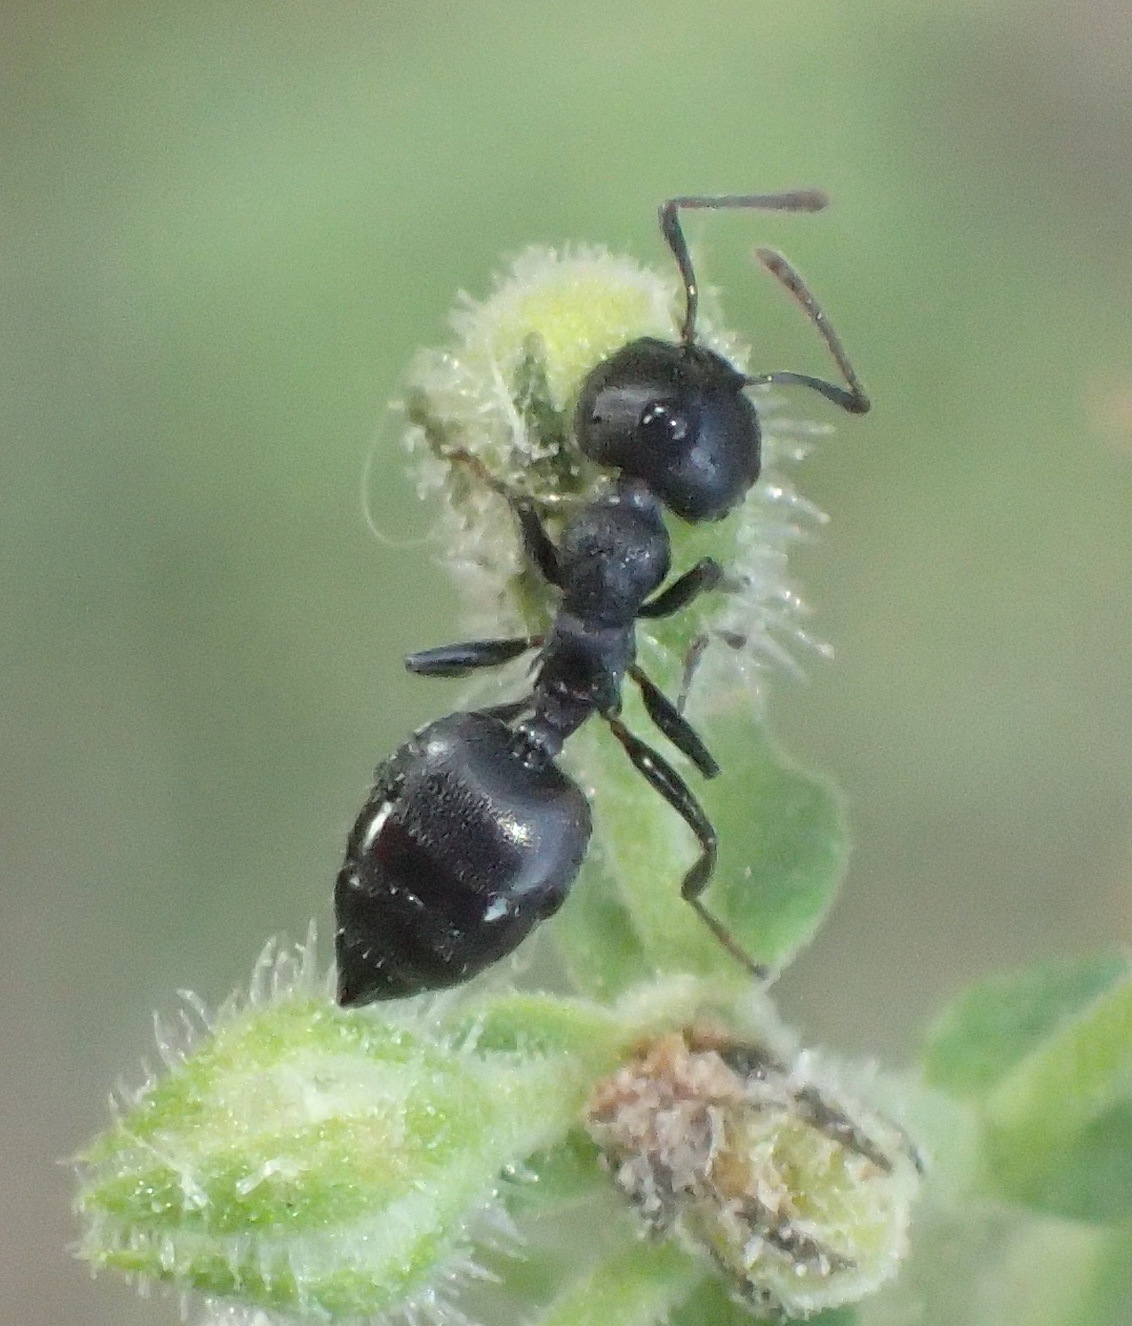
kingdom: Animalia
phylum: Arthropoda
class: Insecta
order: Hymenoptera
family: Formicidae
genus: Crematogaster
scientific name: Crematogaster peringueyi
